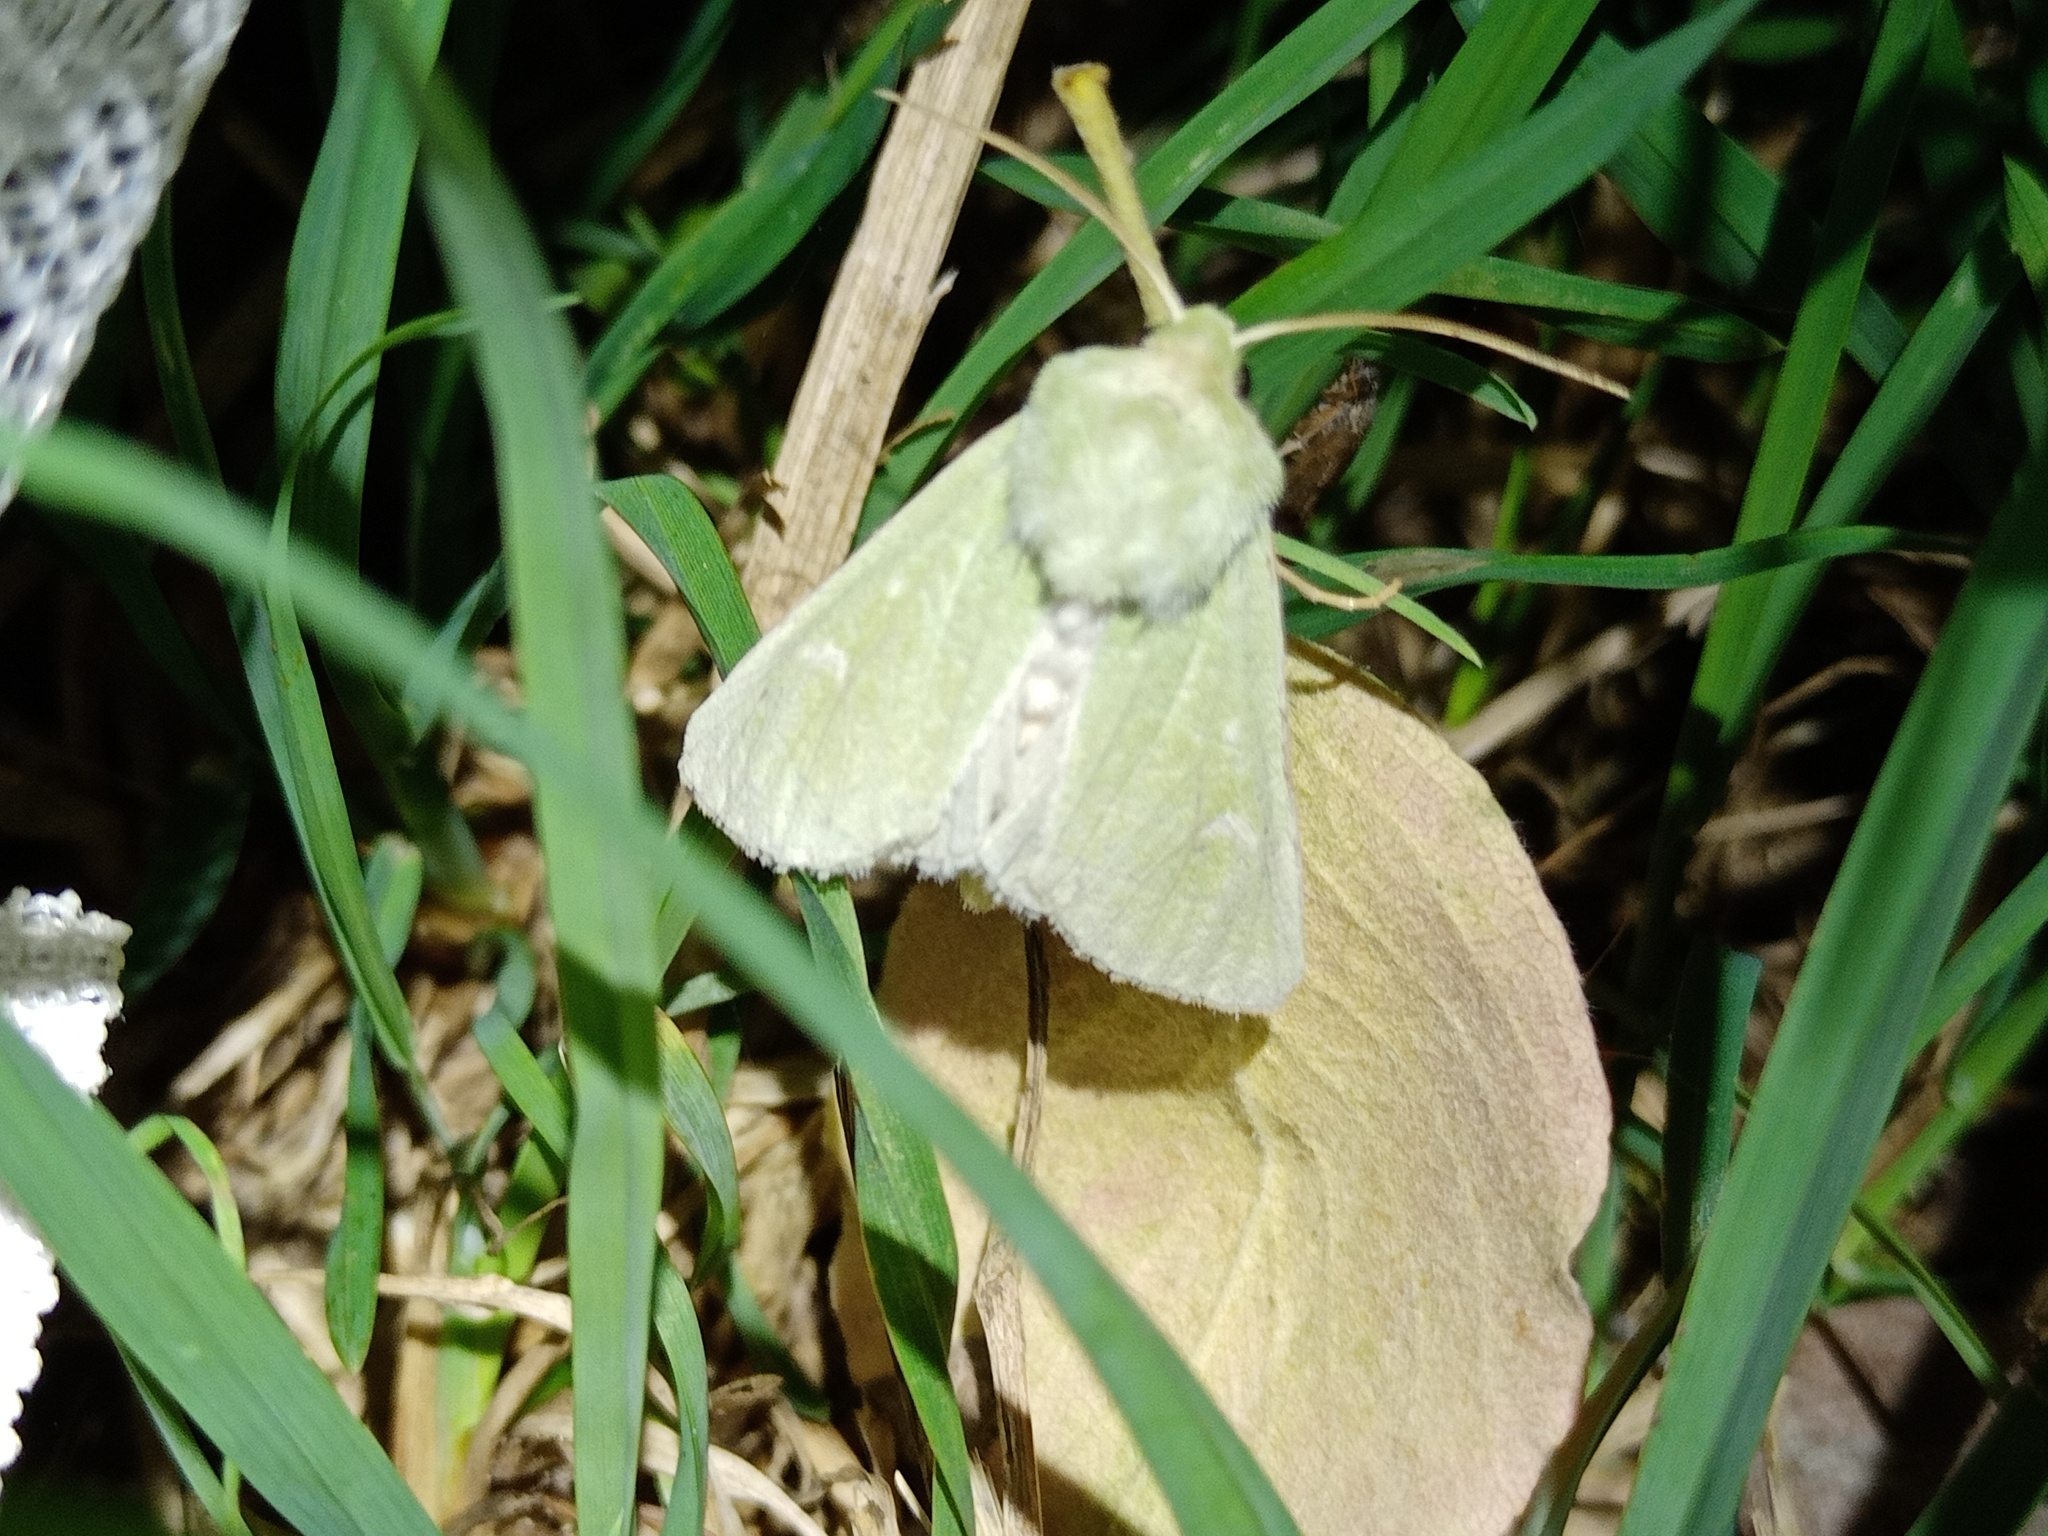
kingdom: Animalia
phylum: Arthropoda
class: Insecta
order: Lepidoptera
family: Noctuidae
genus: Calamia
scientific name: Calamia tridens
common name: Burren green
